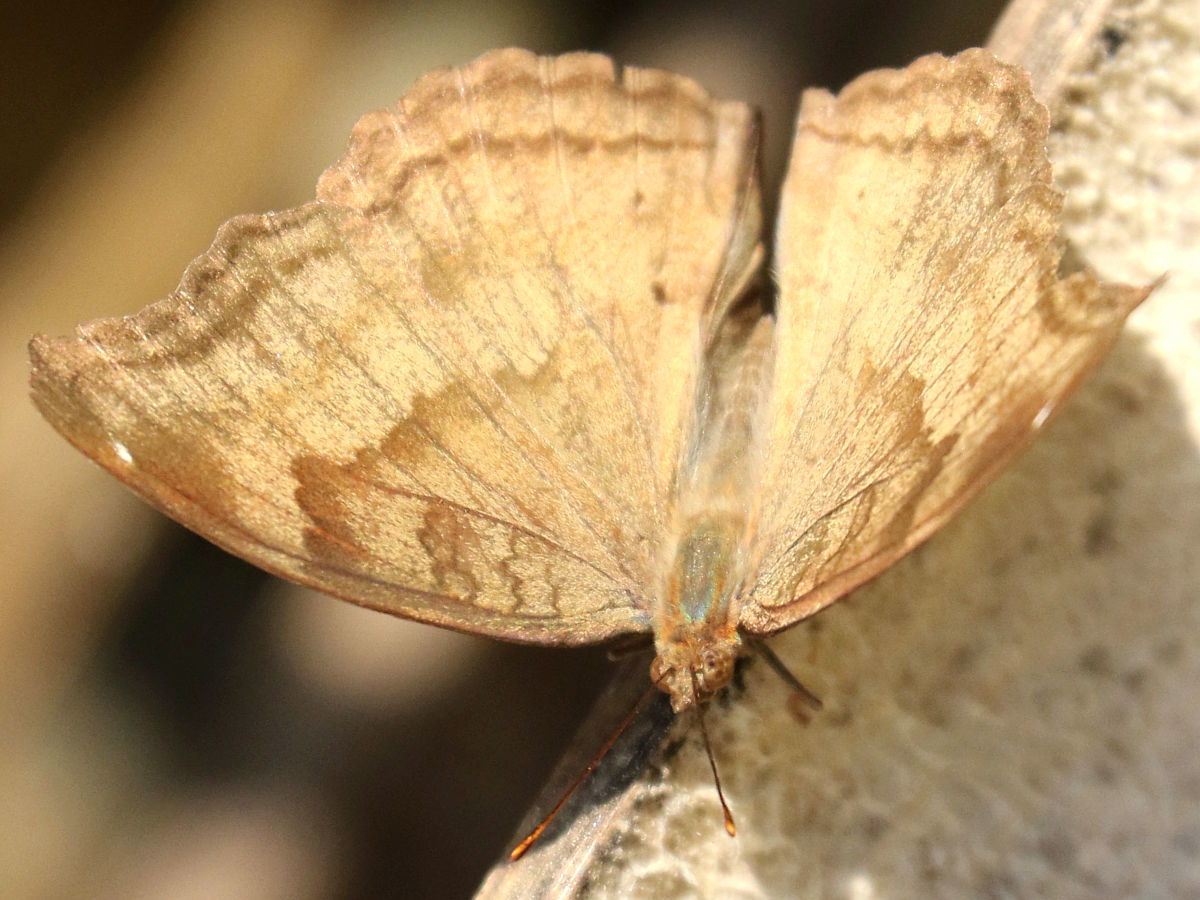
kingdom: Animalia
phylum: Arthropoda
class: Insecta
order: Lepidoptera
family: Nymphalidae
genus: Junonia
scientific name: Junonia iphita
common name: Chocolate pansy
